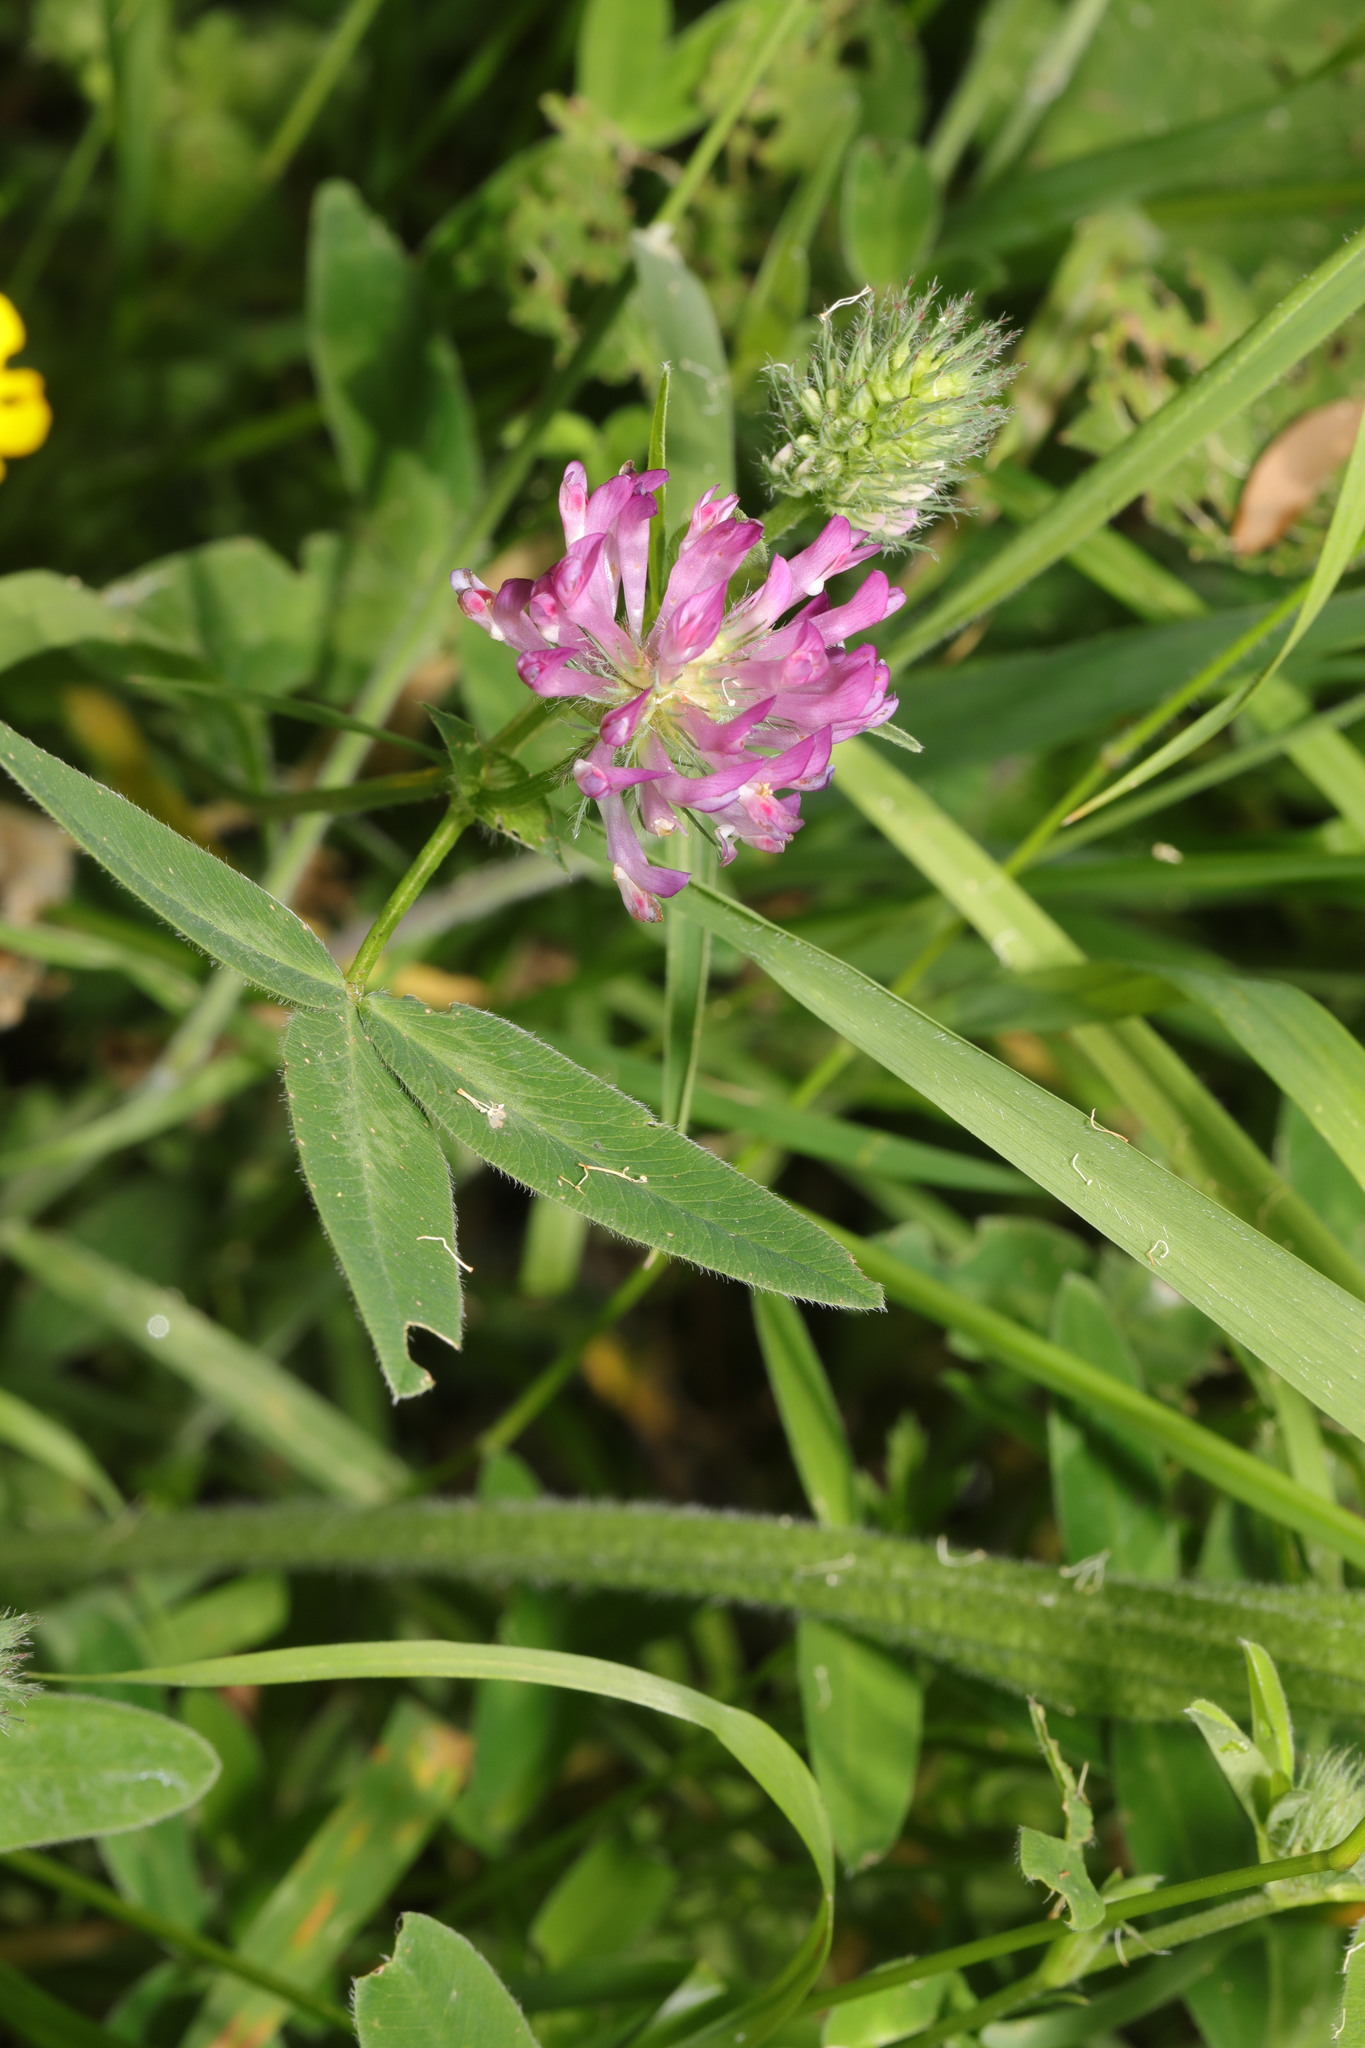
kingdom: Plantae
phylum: Tracheophyta
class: Magnoliopsida
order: Fabales
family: Fabaceae
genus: Trifolium
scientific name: Trifolium medium
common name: Zigzag clover
